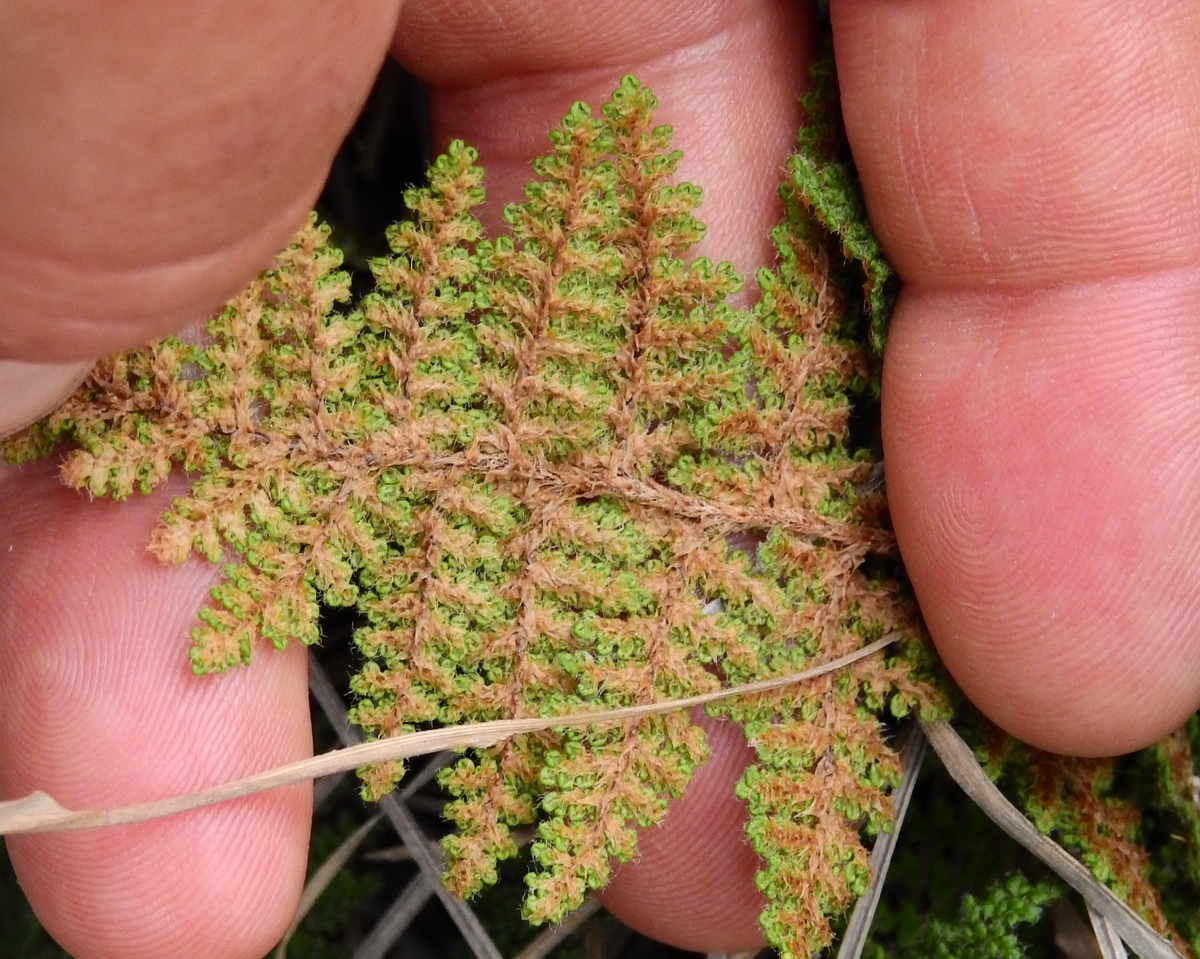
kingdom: Plantae
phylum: Tracheophyta
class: Polypodiopsida
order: Polypodiales
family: Pteridaceae
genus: Myriopteris
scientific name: Myriopteris myriophylla
